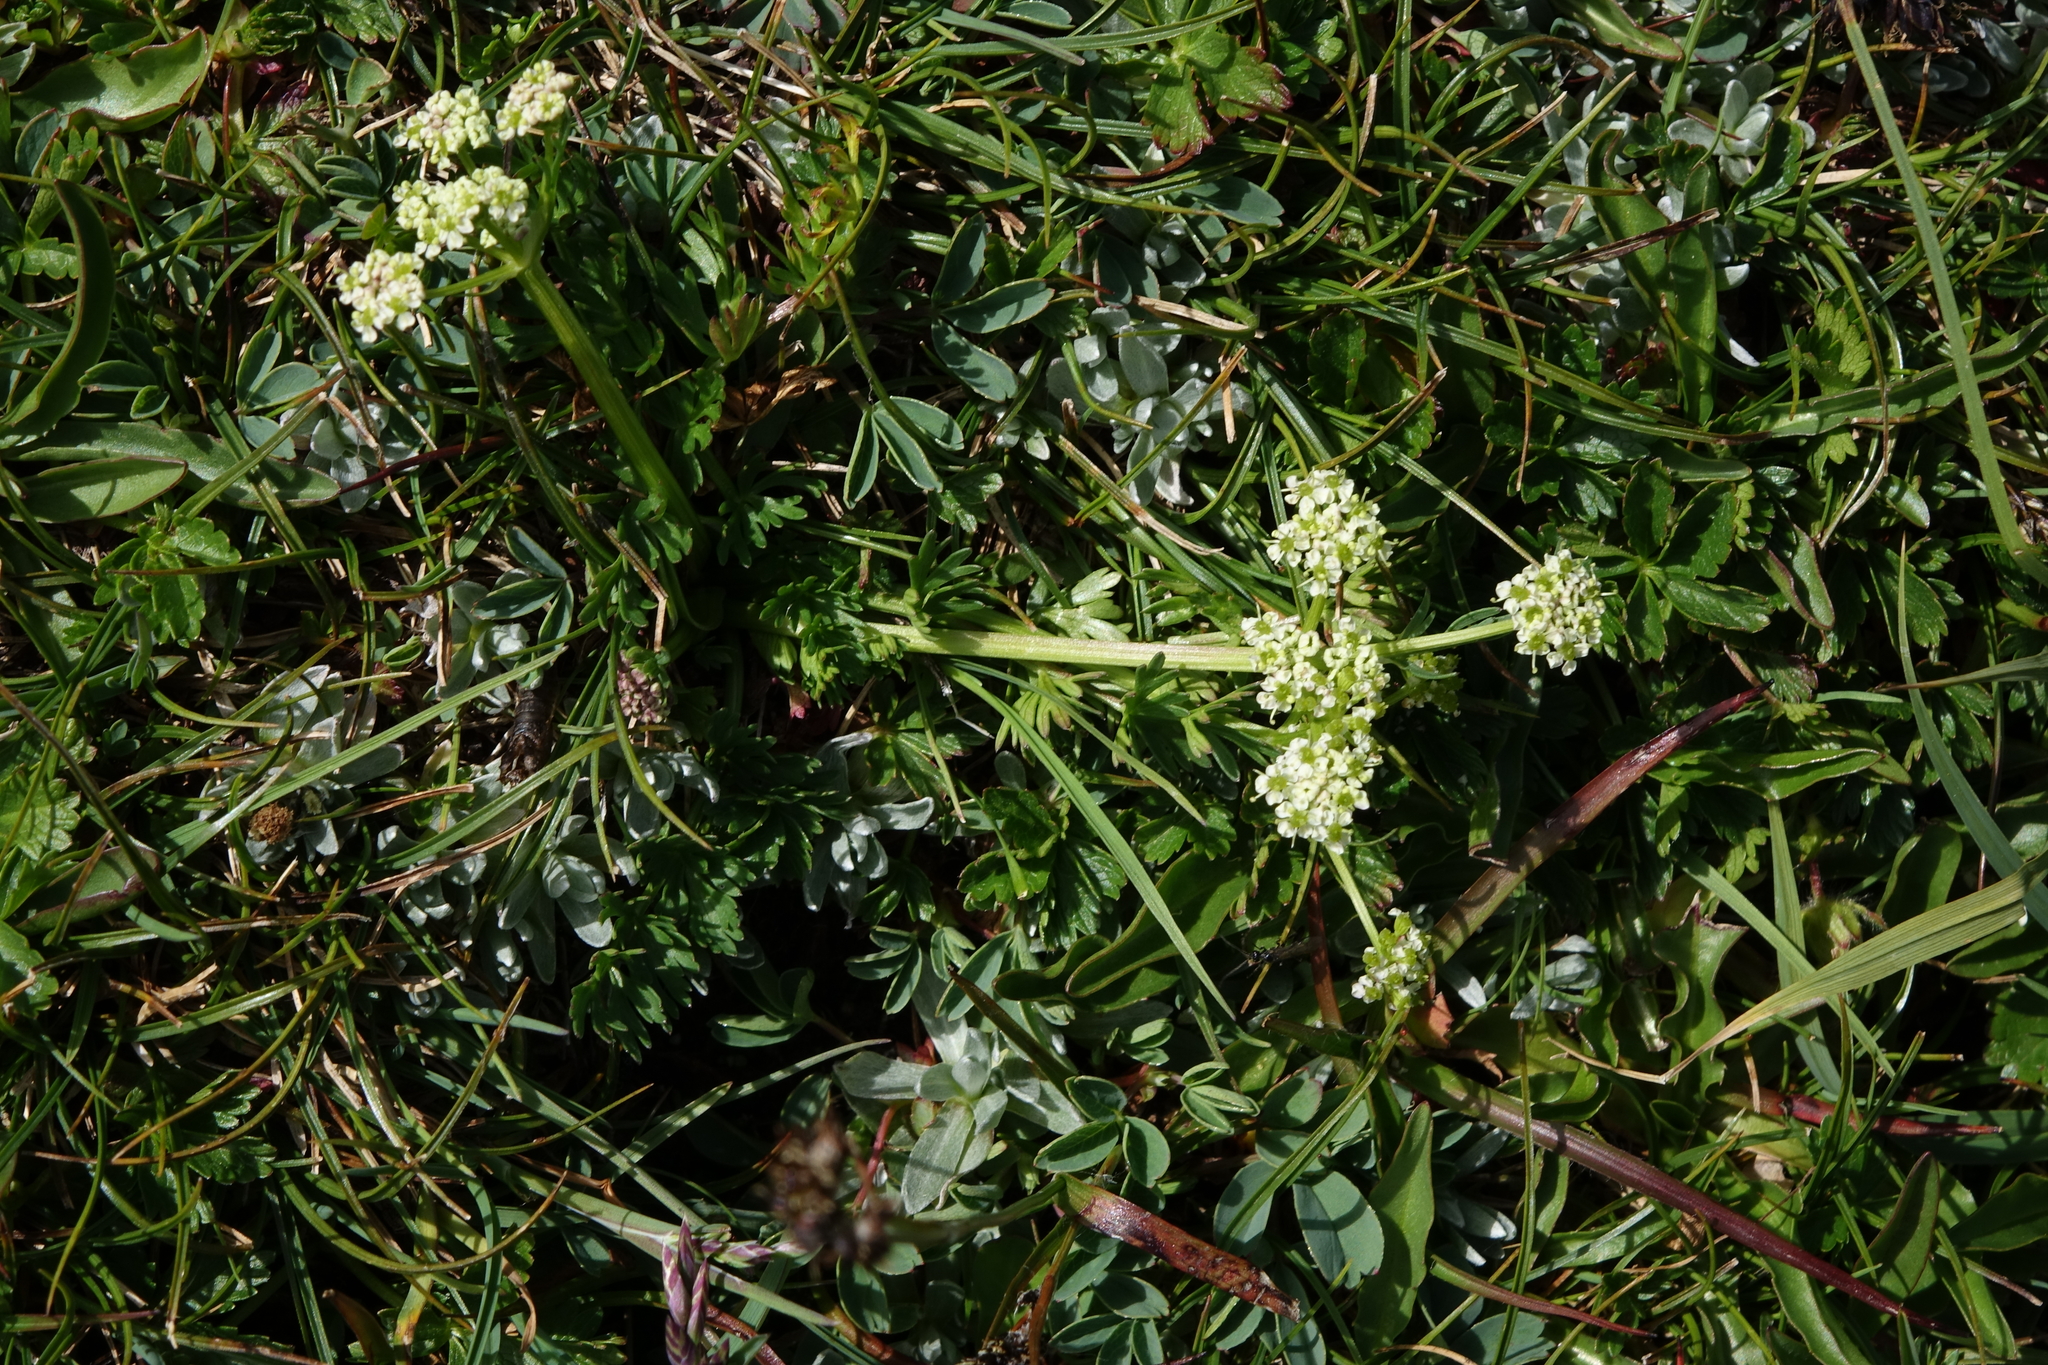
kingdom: Plantae
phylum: Tracheophyta
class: Magnoliopsida
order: Apiales
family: Apiaceae
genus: Chamaesciadium
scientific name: Chamaesciadium acaule
